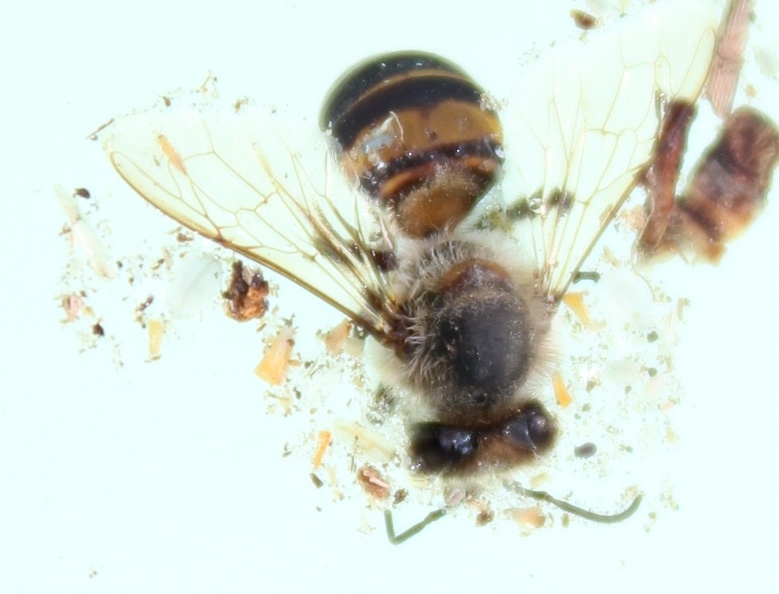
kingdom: Animalia
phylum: Arthropoda
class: Insecta
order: Hymenoptera
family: Apidae
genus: Apis
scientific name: Apis mellifera
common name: Honey bee
